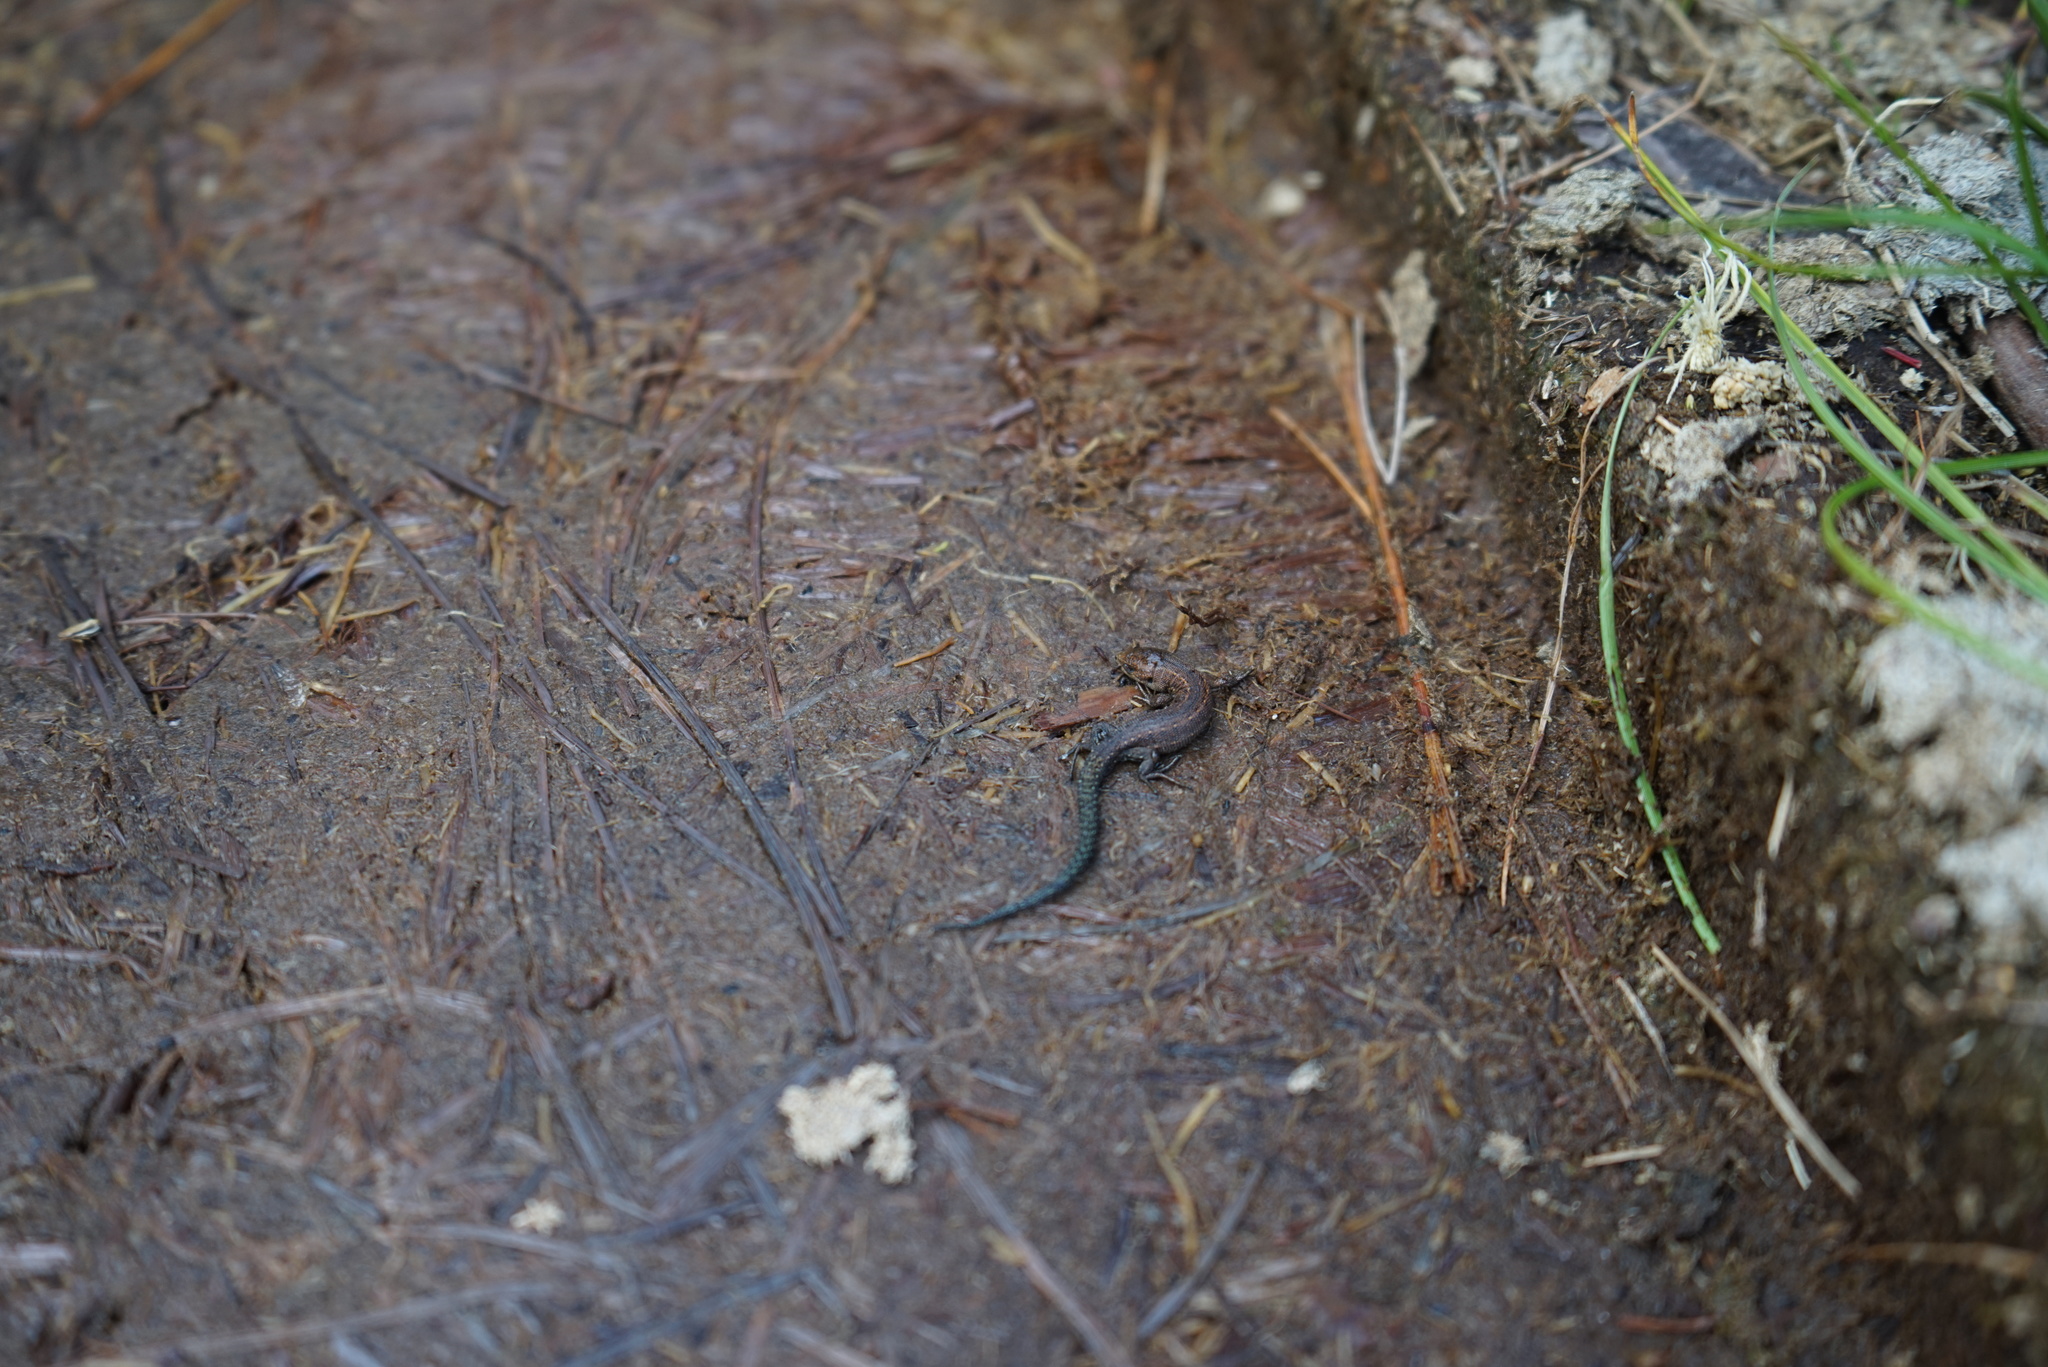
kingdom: Animalia
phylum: Chordata
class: Squamata
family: Lacertidae
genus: Zootoca
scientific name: Zootoca vivipara
